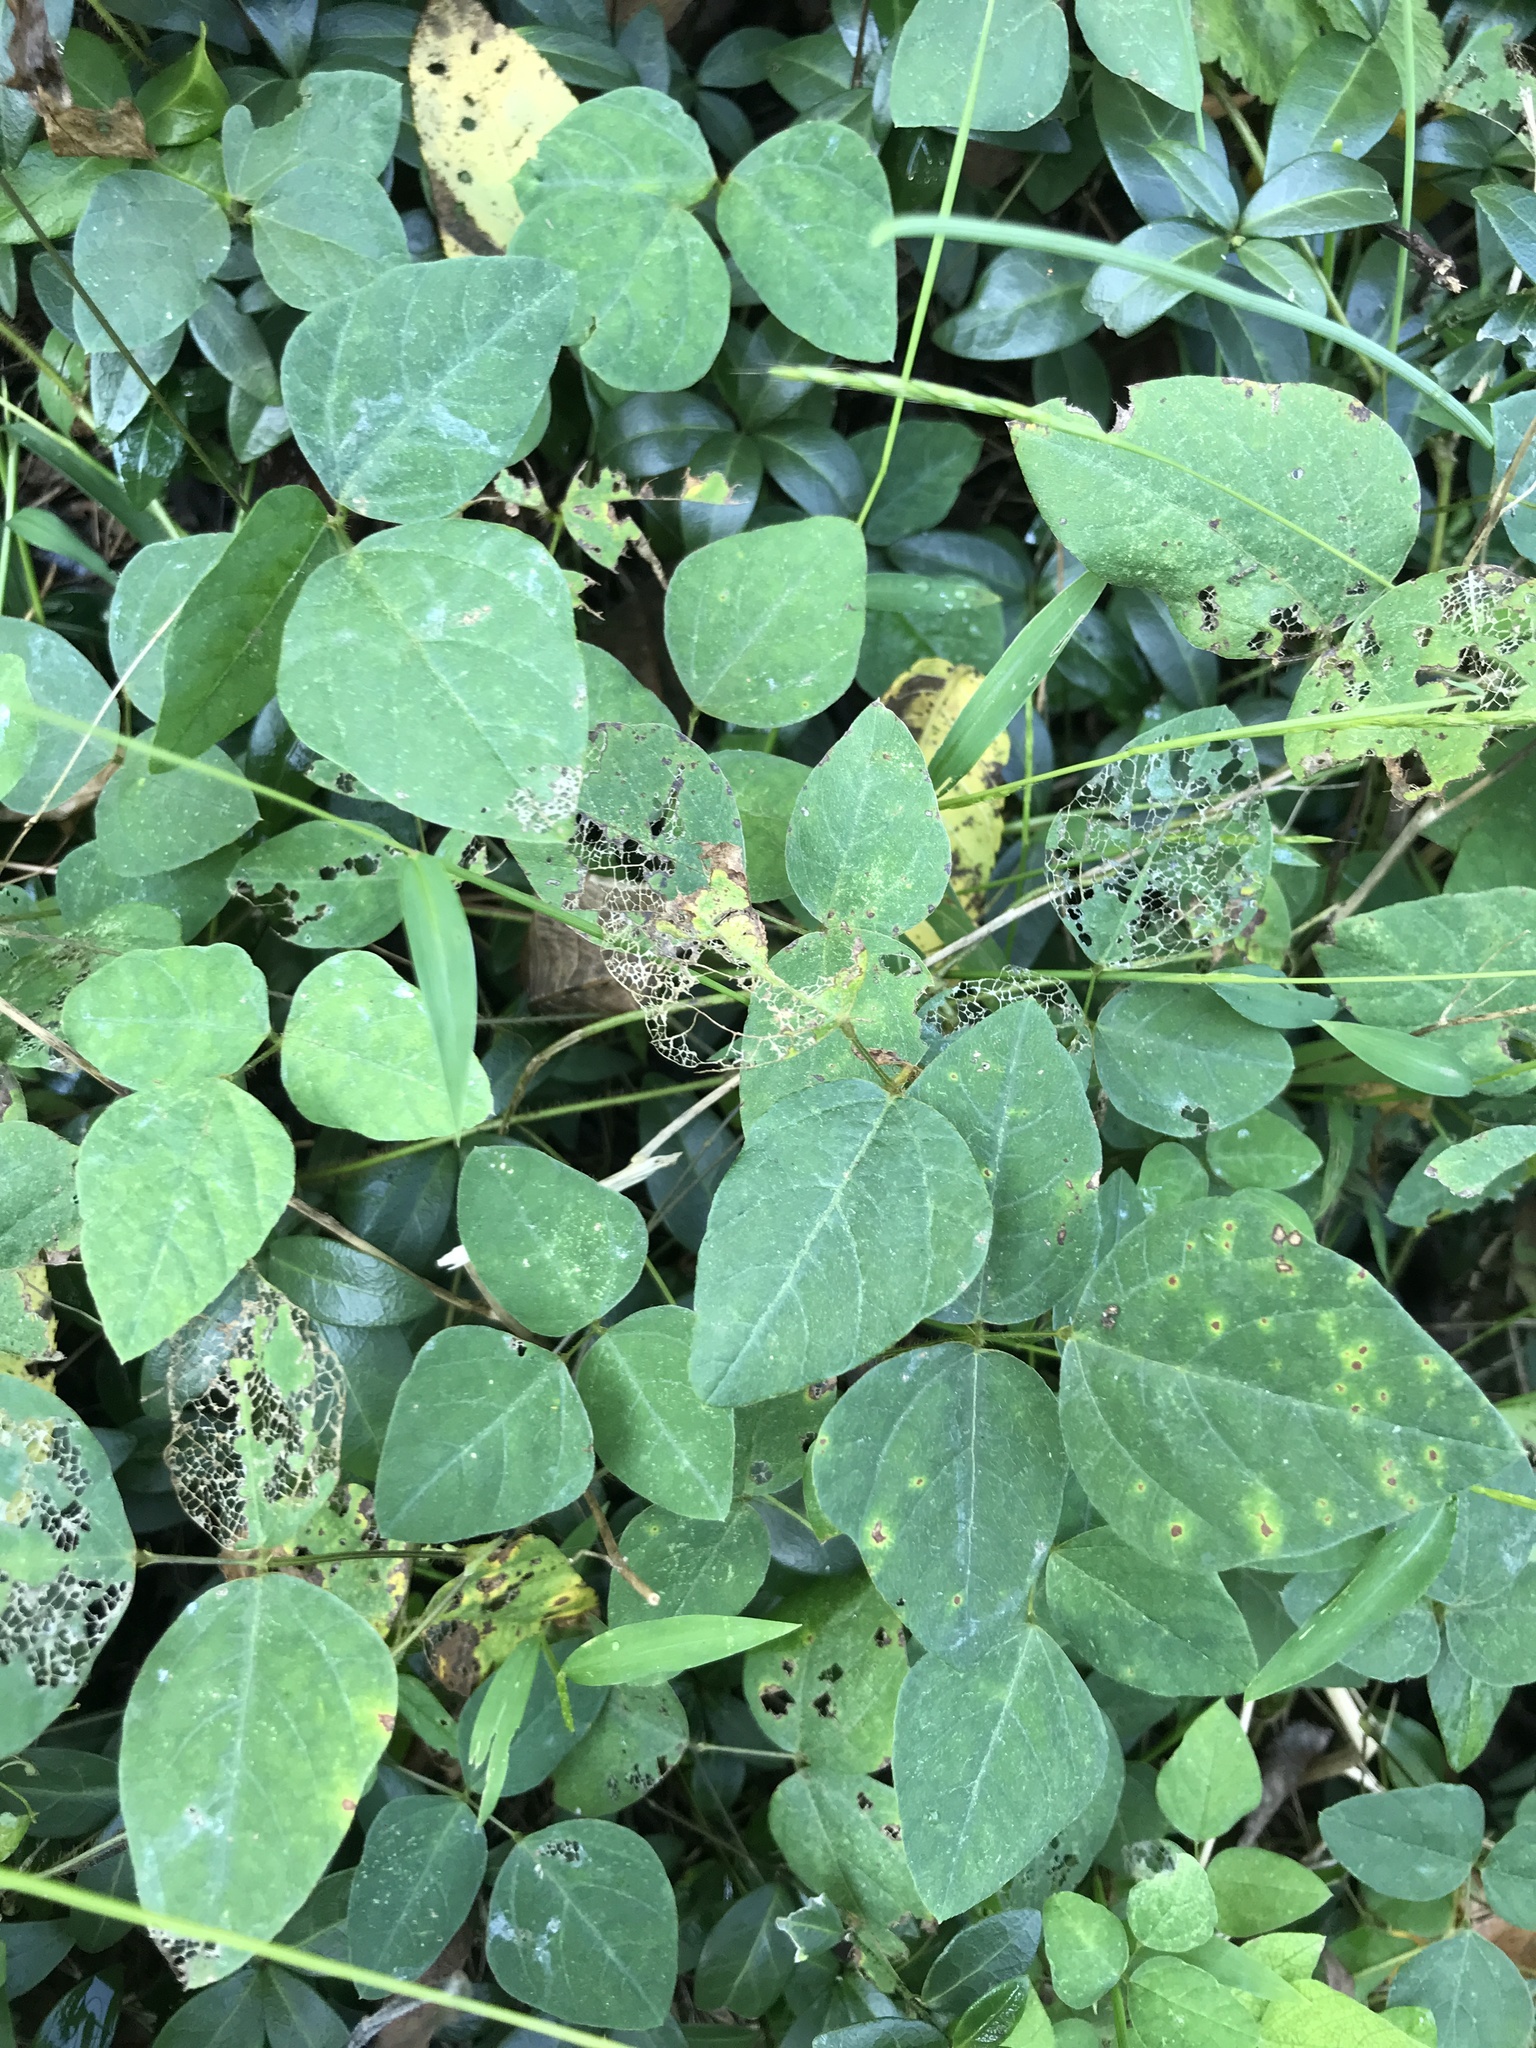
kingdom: Plantae
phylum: Tracheophyta
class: Magnoliopsida
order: Fabales
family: Fabaceae
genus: Amphicarpaea
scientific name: Amphicarpaea bracteata
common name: American hog peanut
